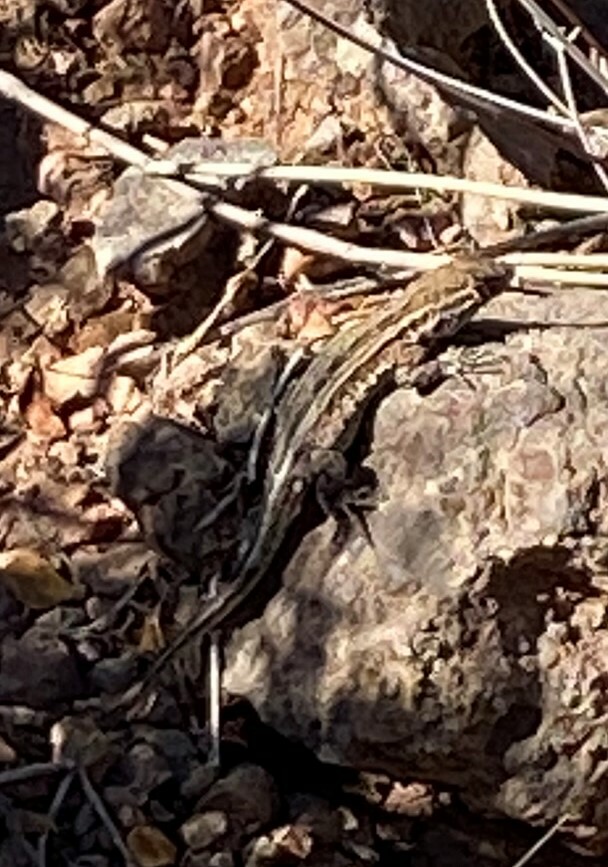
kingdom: Animalia
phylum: Chordata
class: Squamata
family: Phrynosomatidae
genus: Uta
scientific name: Uta stansburiana
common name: Side-blotched lizard
